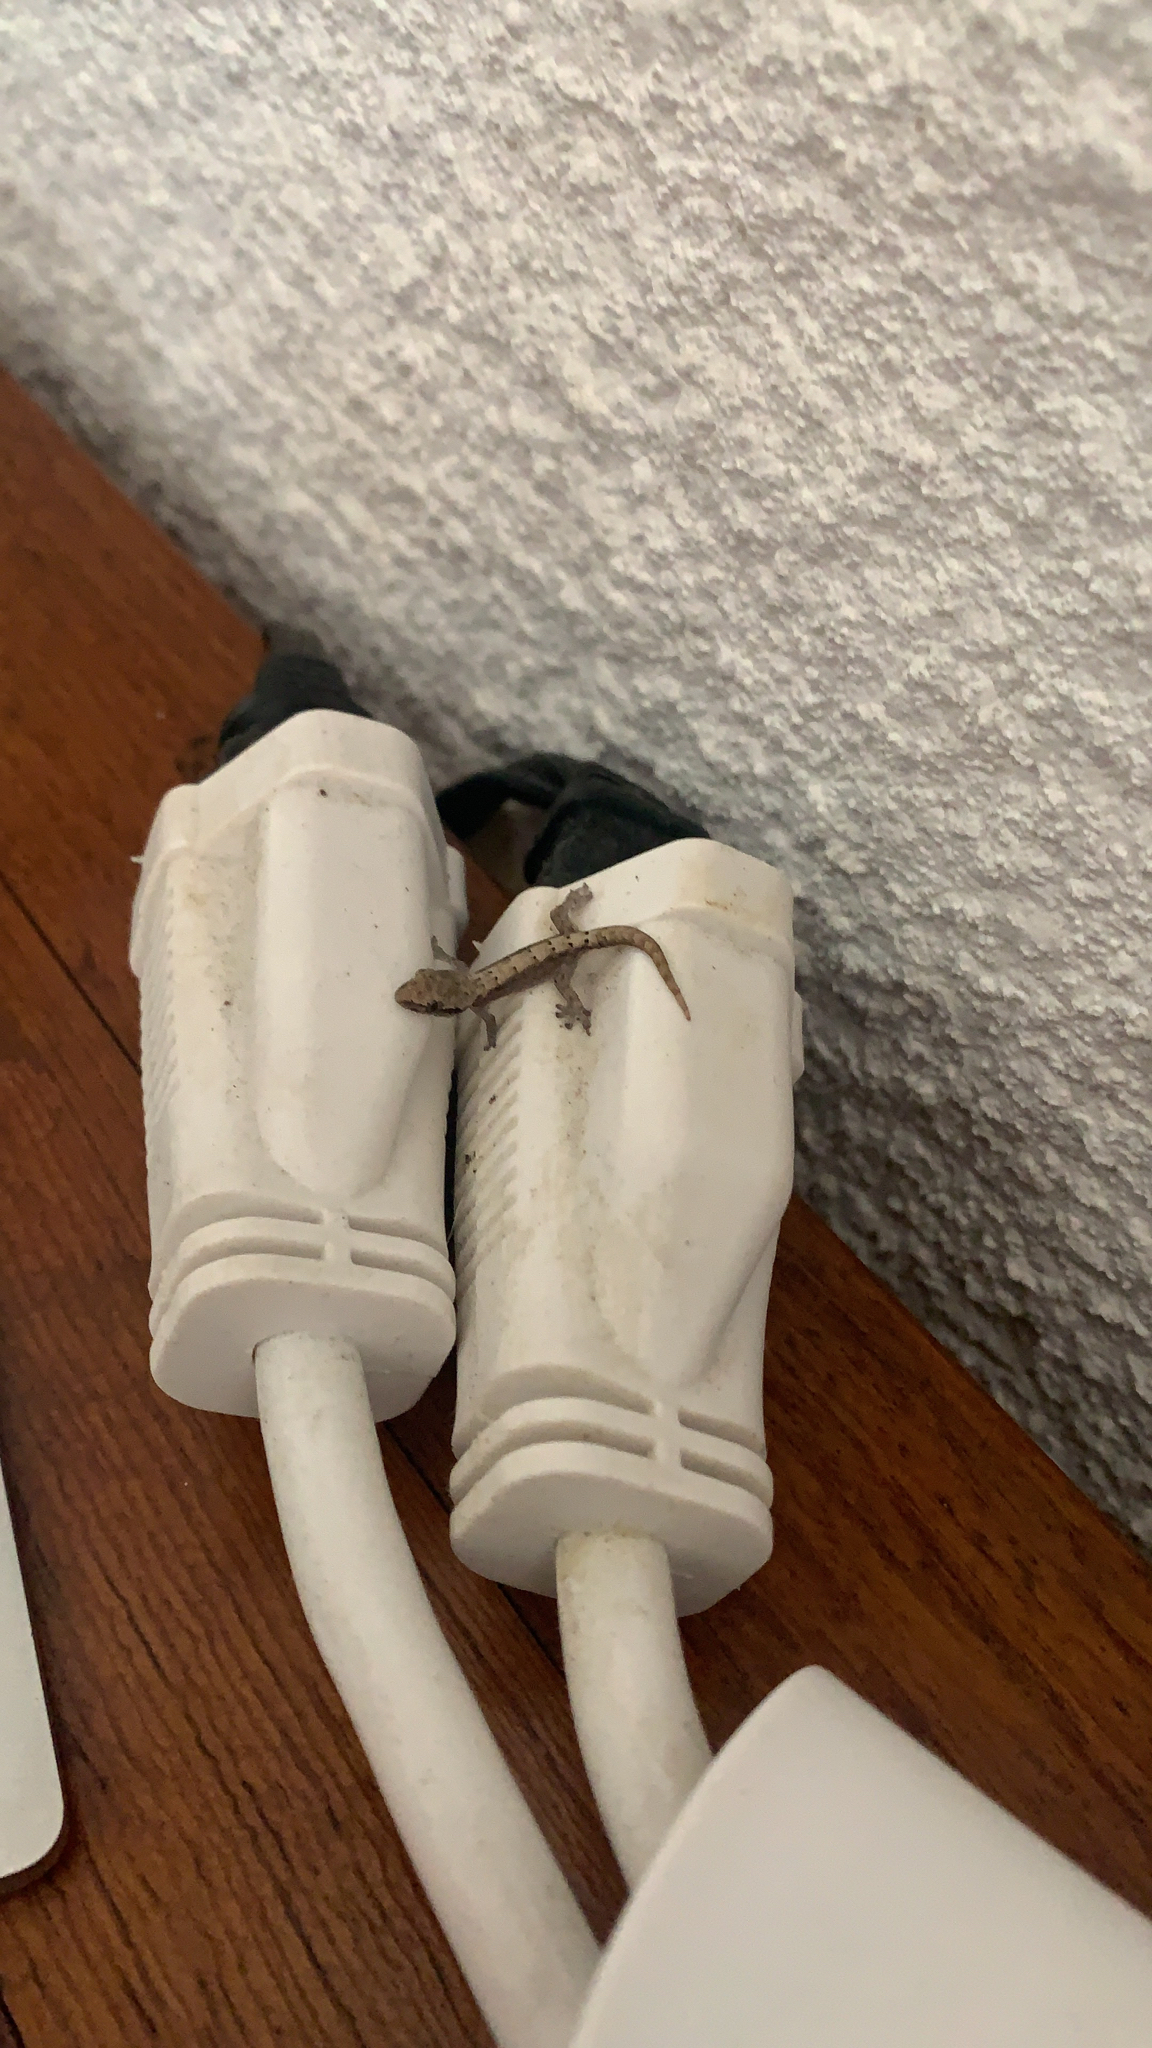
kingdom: Animalia
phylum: Chordata
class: Squamata
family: Gekkonidae
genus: Lepidodactylus
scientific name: Lepidodactylus lugubris
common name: Mourning gecko
